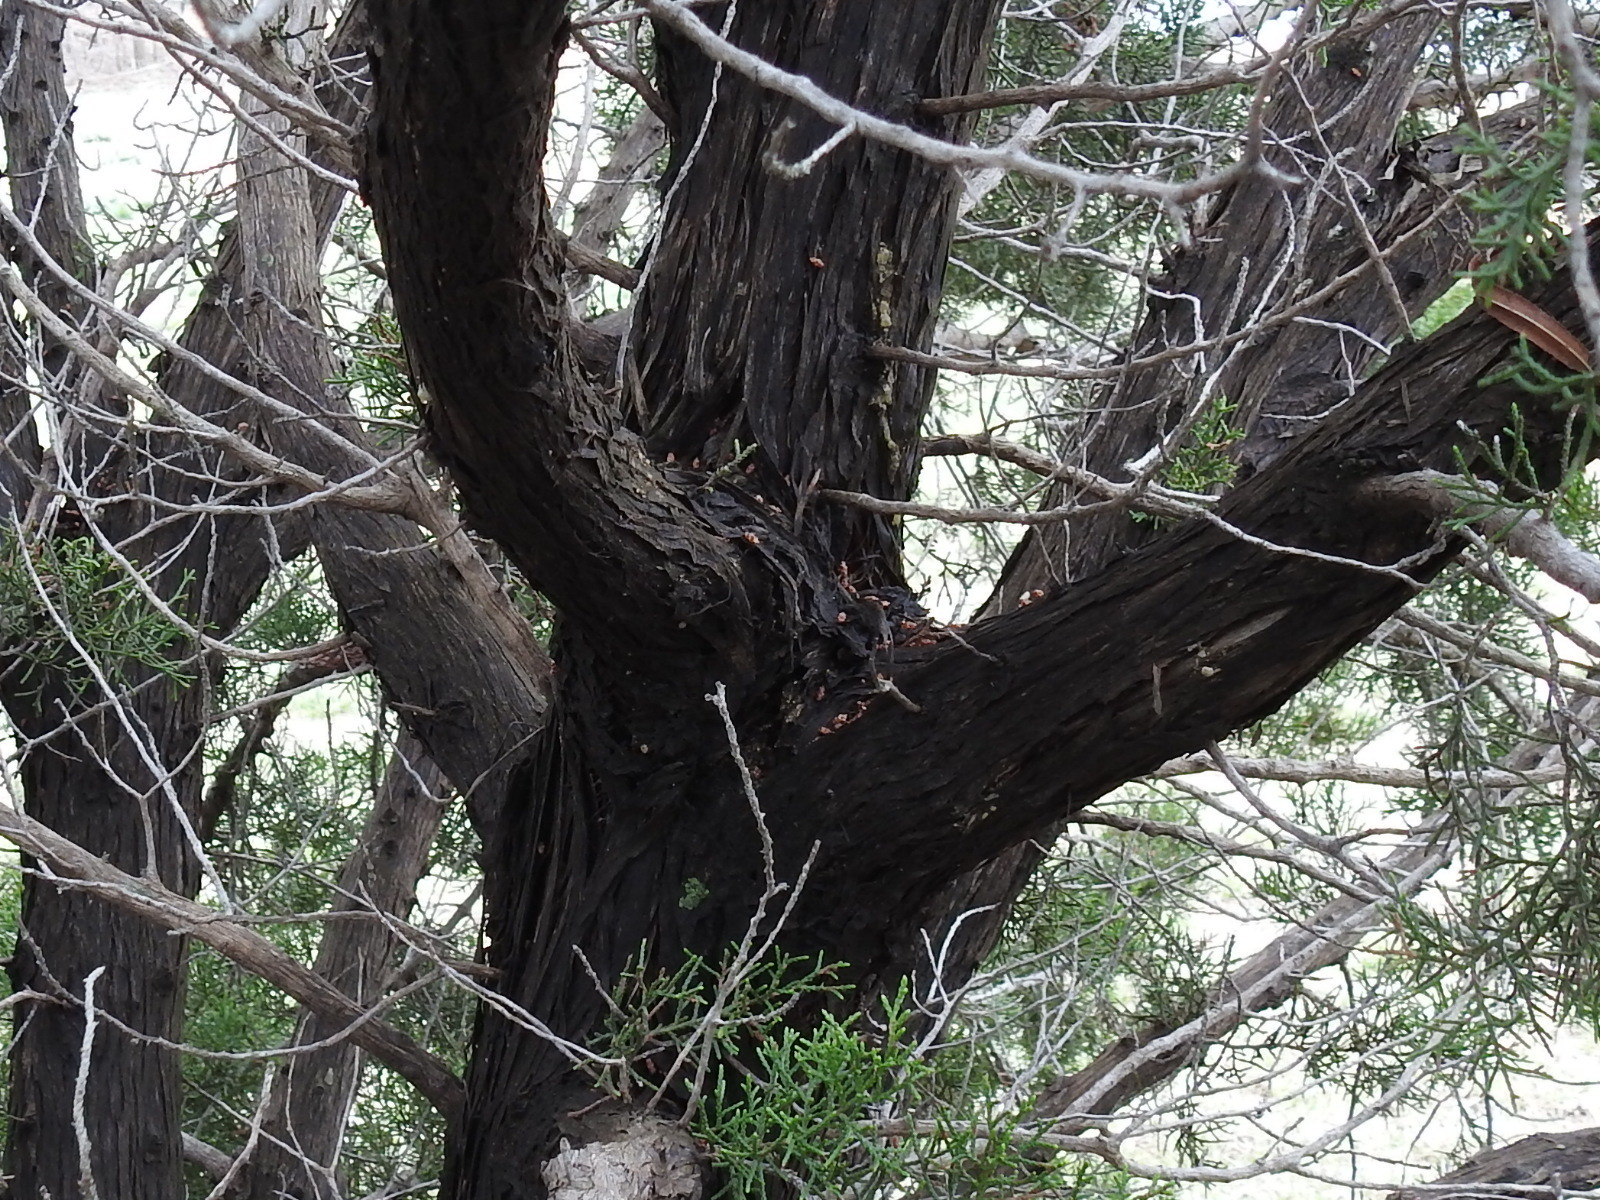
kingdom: Plantae
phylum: Tracheophyta
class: Pinopsida
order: Pinales
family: Cupressaceae
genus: Juniperus
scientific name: Juniperus virginiana
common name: Red juniper
